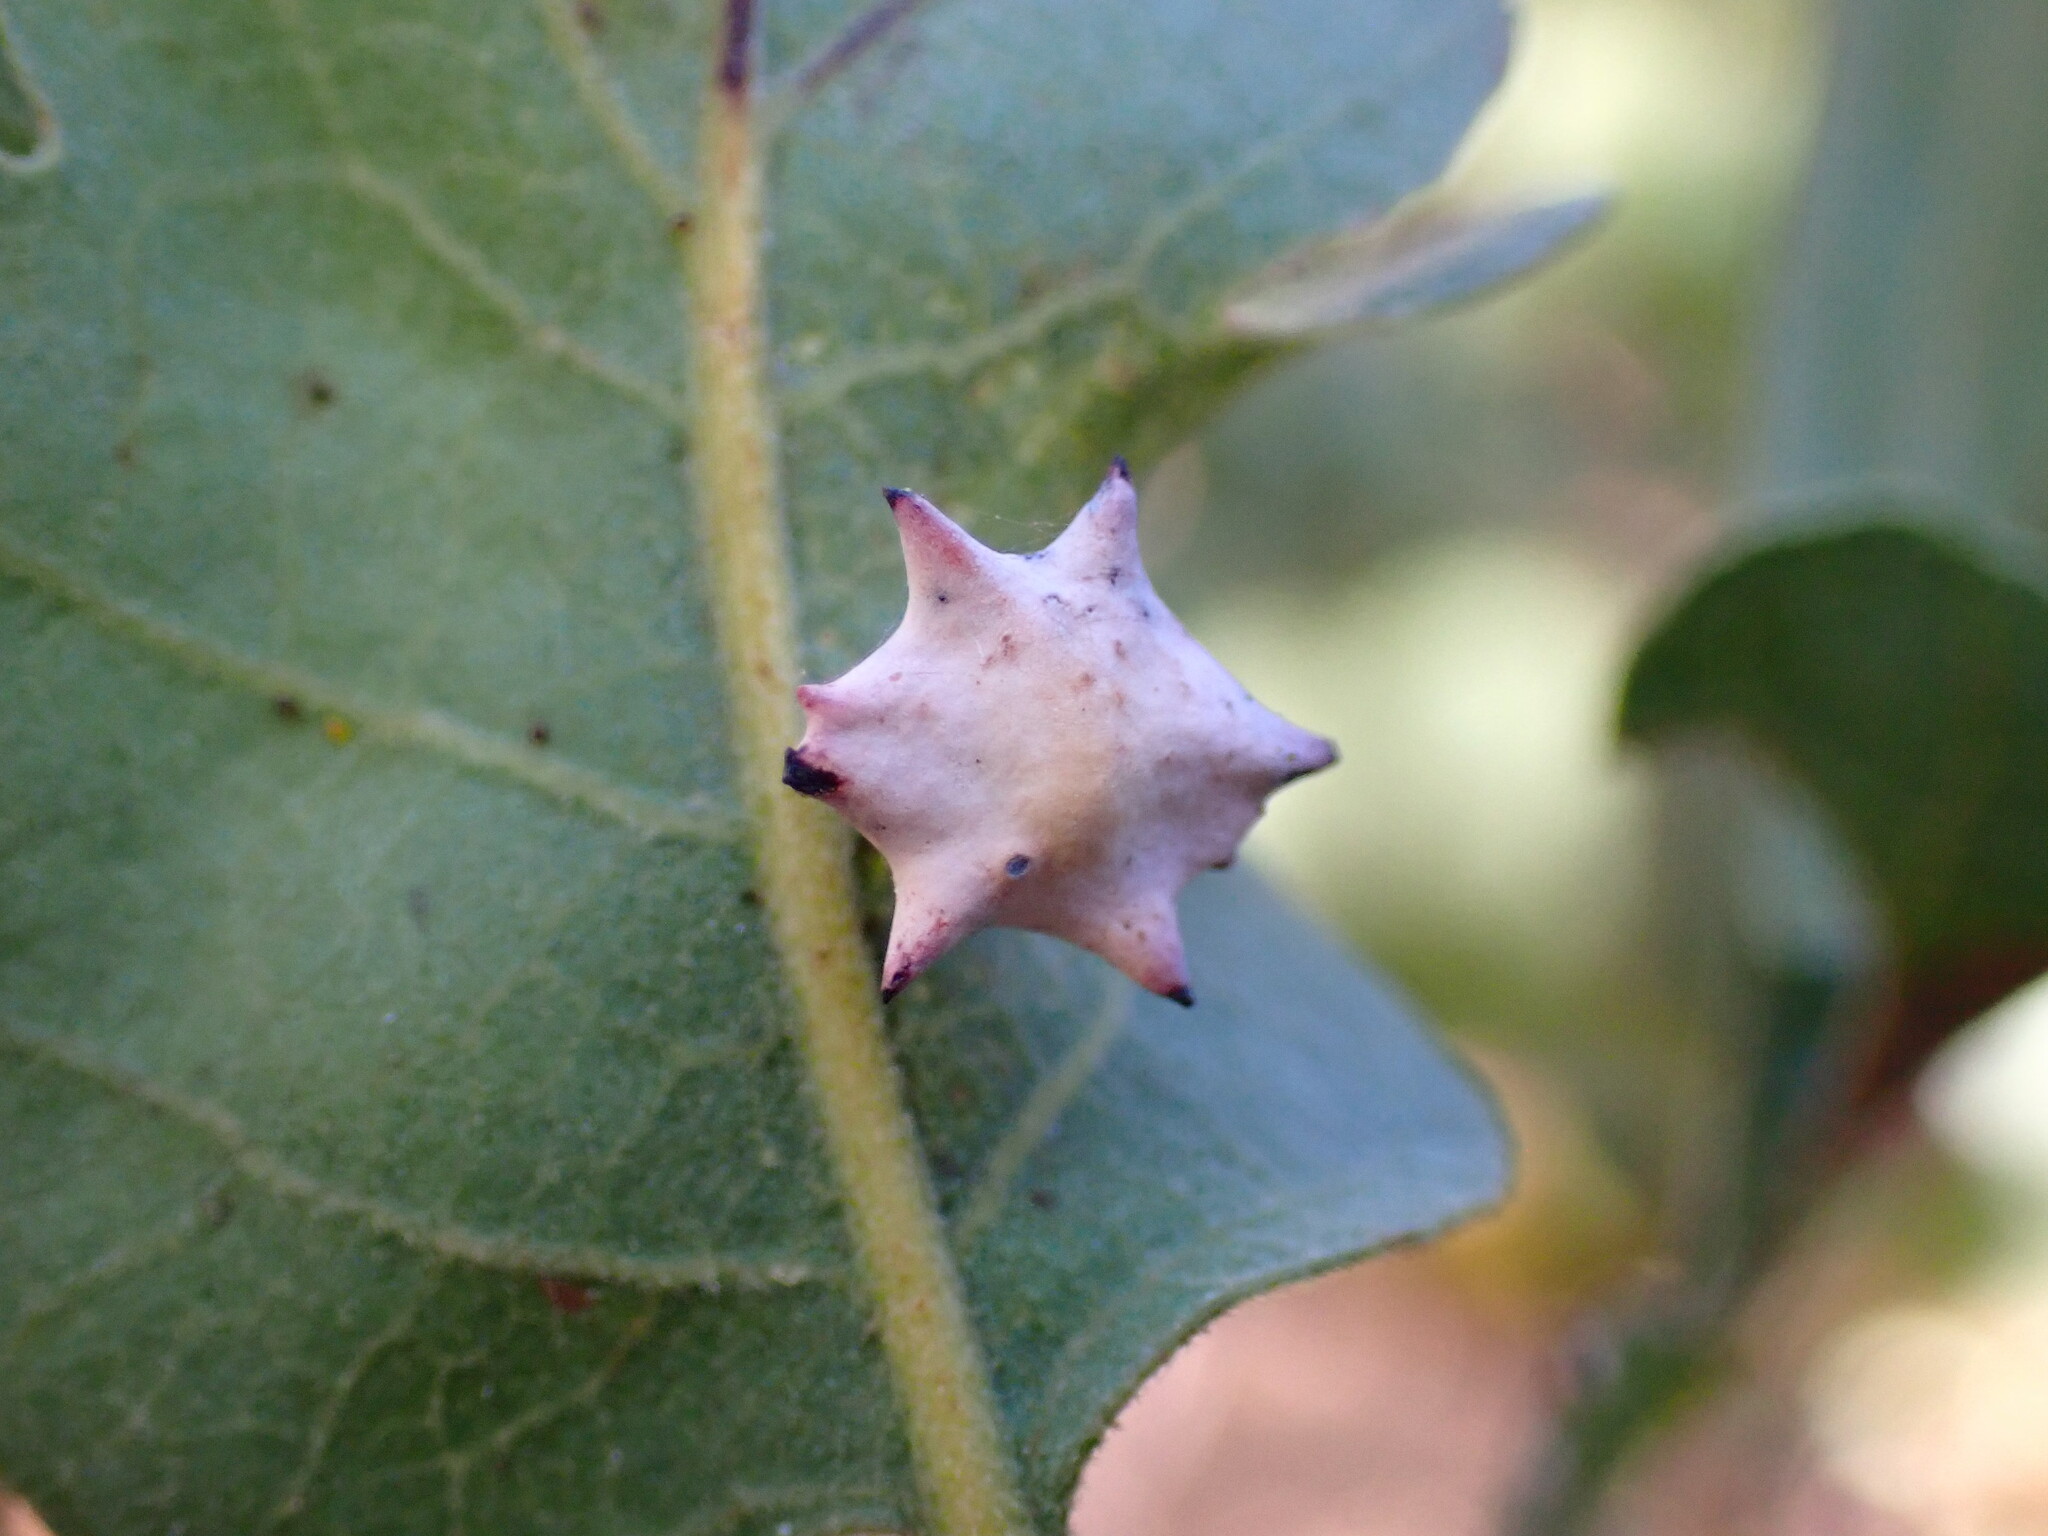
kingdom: Animalia
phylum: Arthropoda
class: Insecta
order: Hymenoptera
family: Cynipidae
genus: Cynips
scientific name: Cynips douglasi
